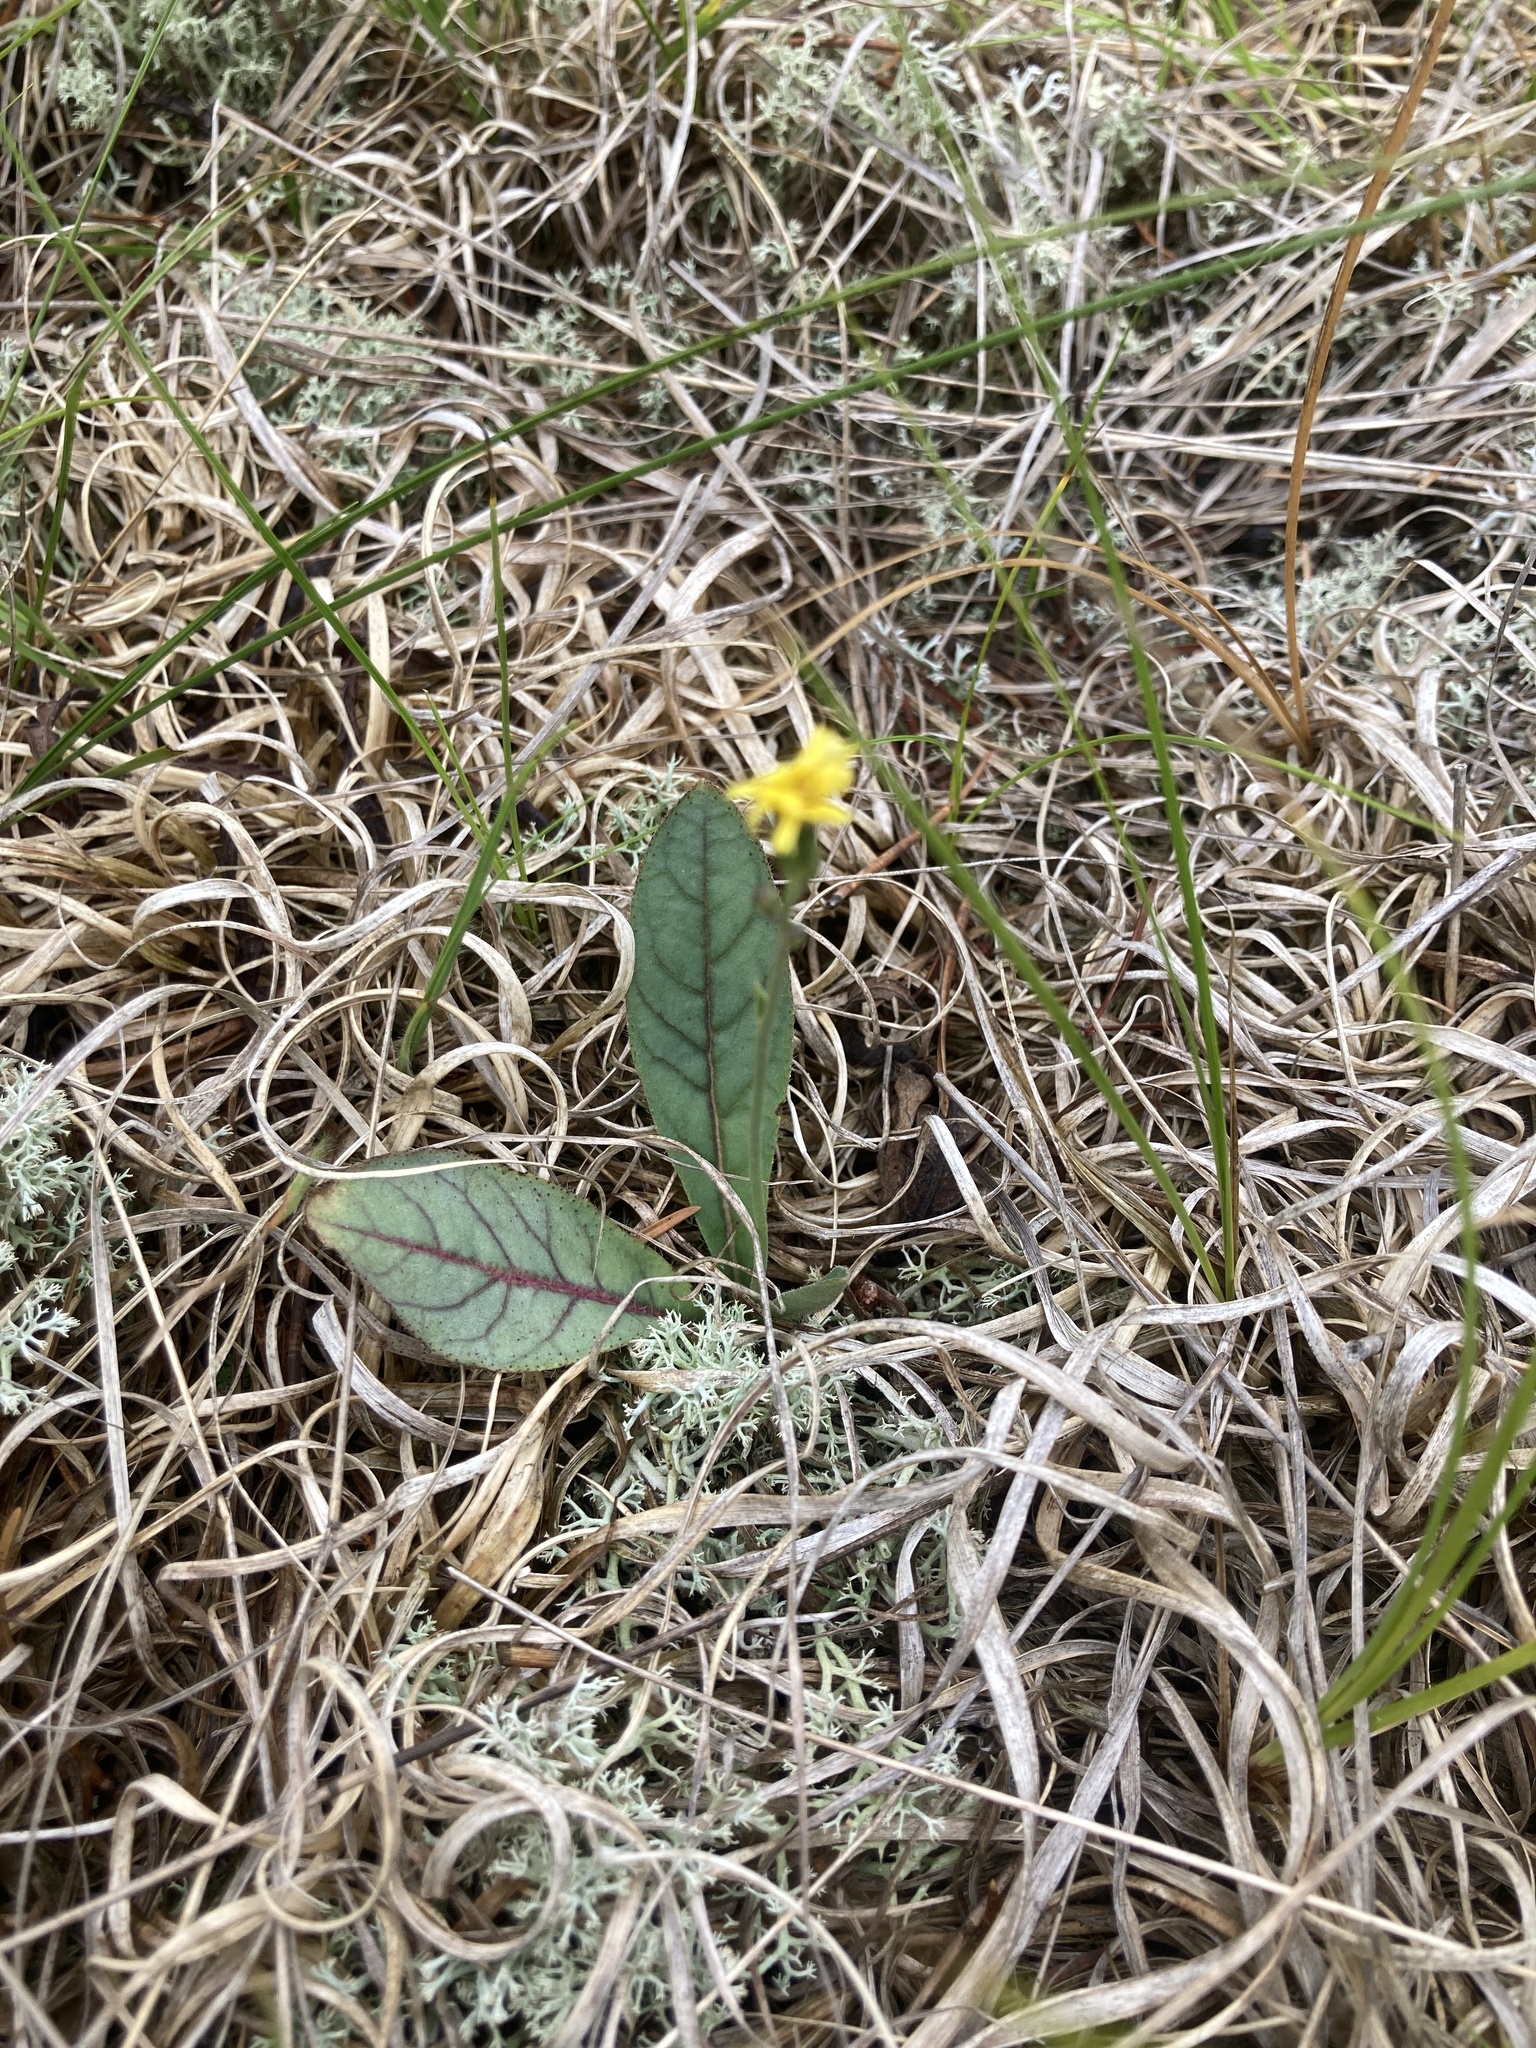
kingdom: Plantae
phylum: Tracheophyta
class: Magnoliopsida
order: Asterales
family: Asteraceae
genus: Hieracium
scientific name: Hieracium venosum
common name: Rattlesnake hawkweed
